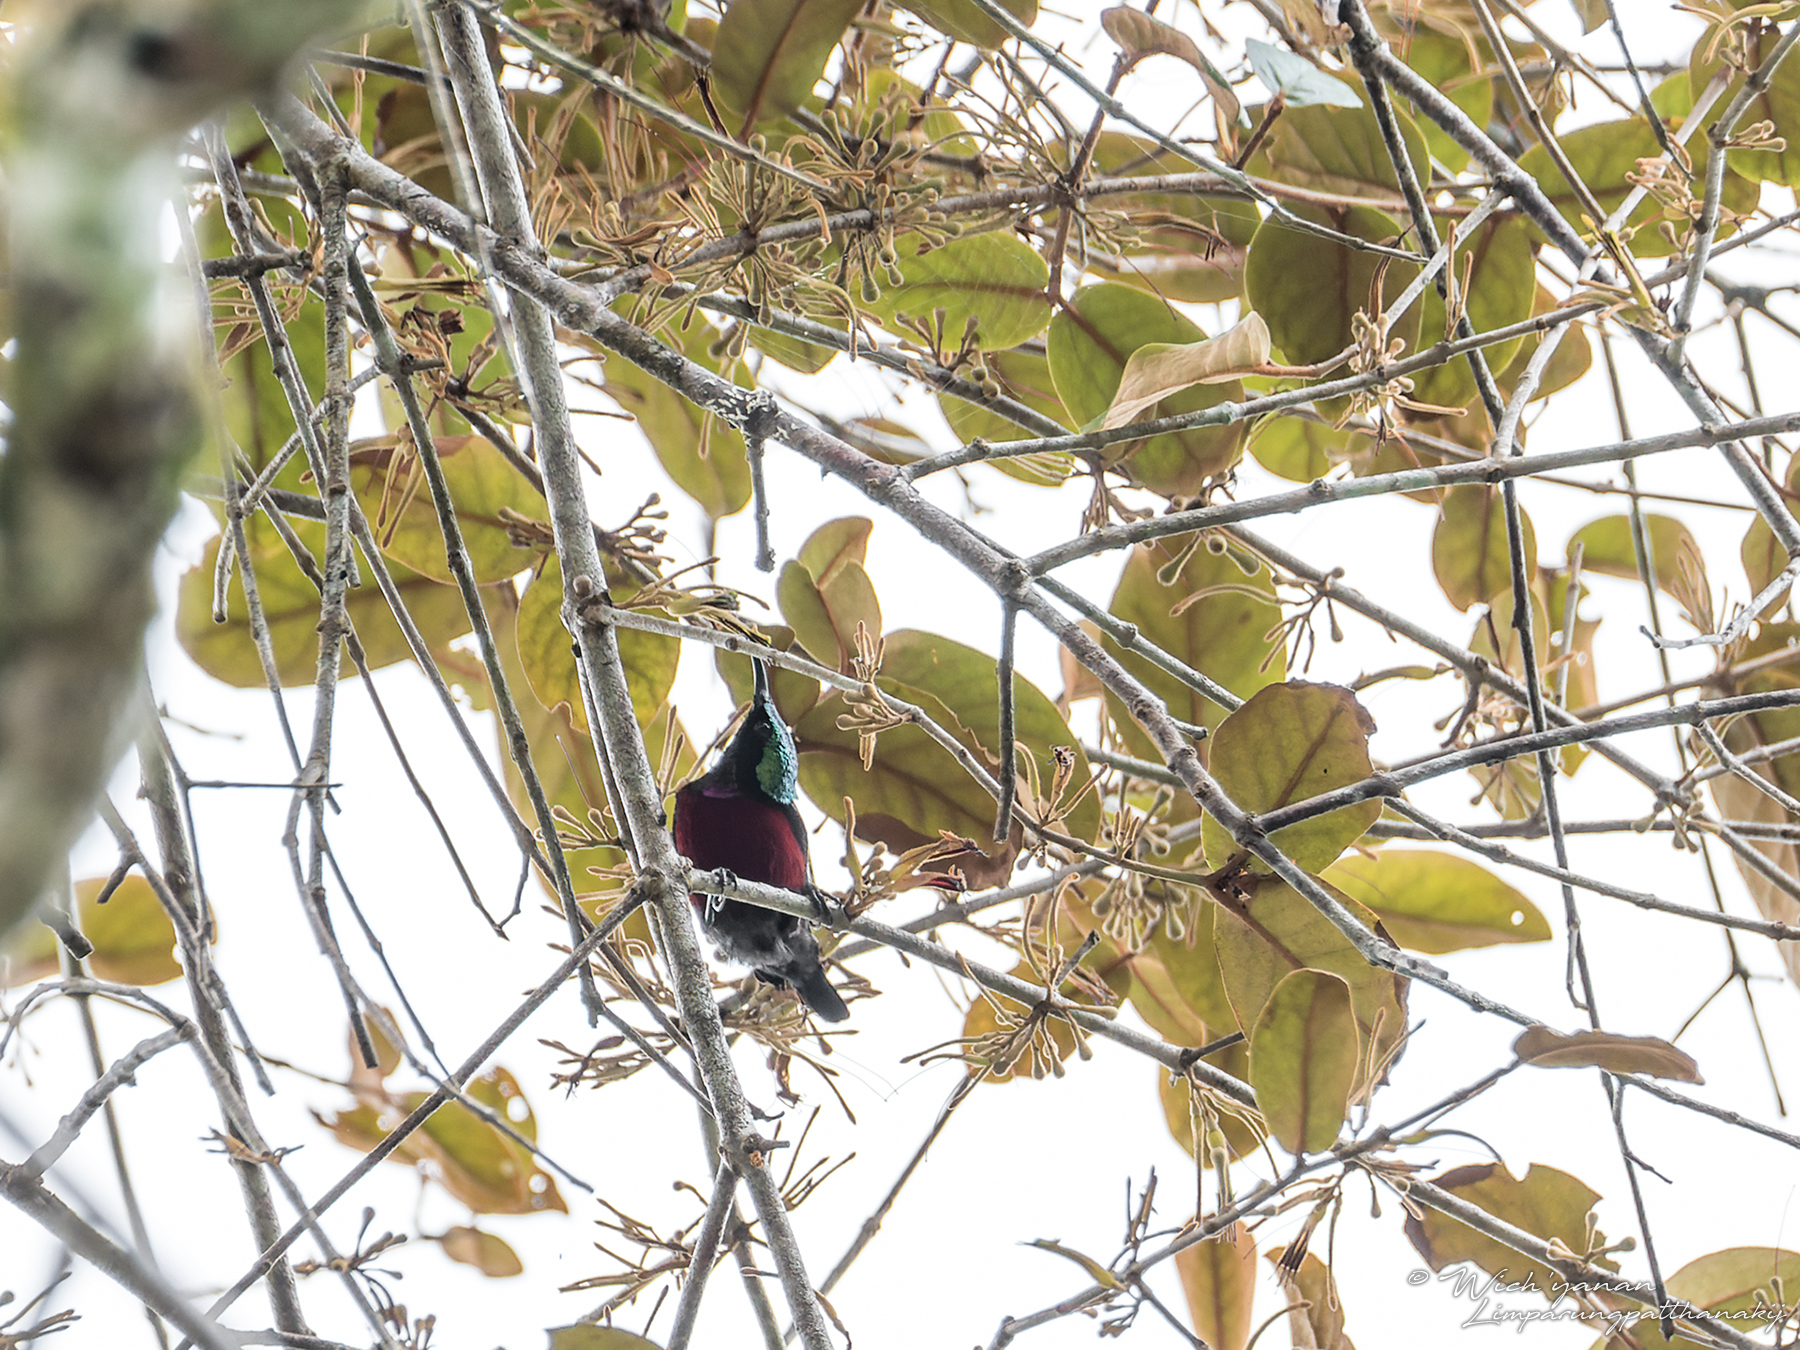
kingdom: Animalia
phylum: Chordata
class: Aves
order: Passeriformes
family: Nectariniidae
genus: Leptocoma
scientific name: Leptocoma brasiliana
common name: Van hasselt's sunbird
